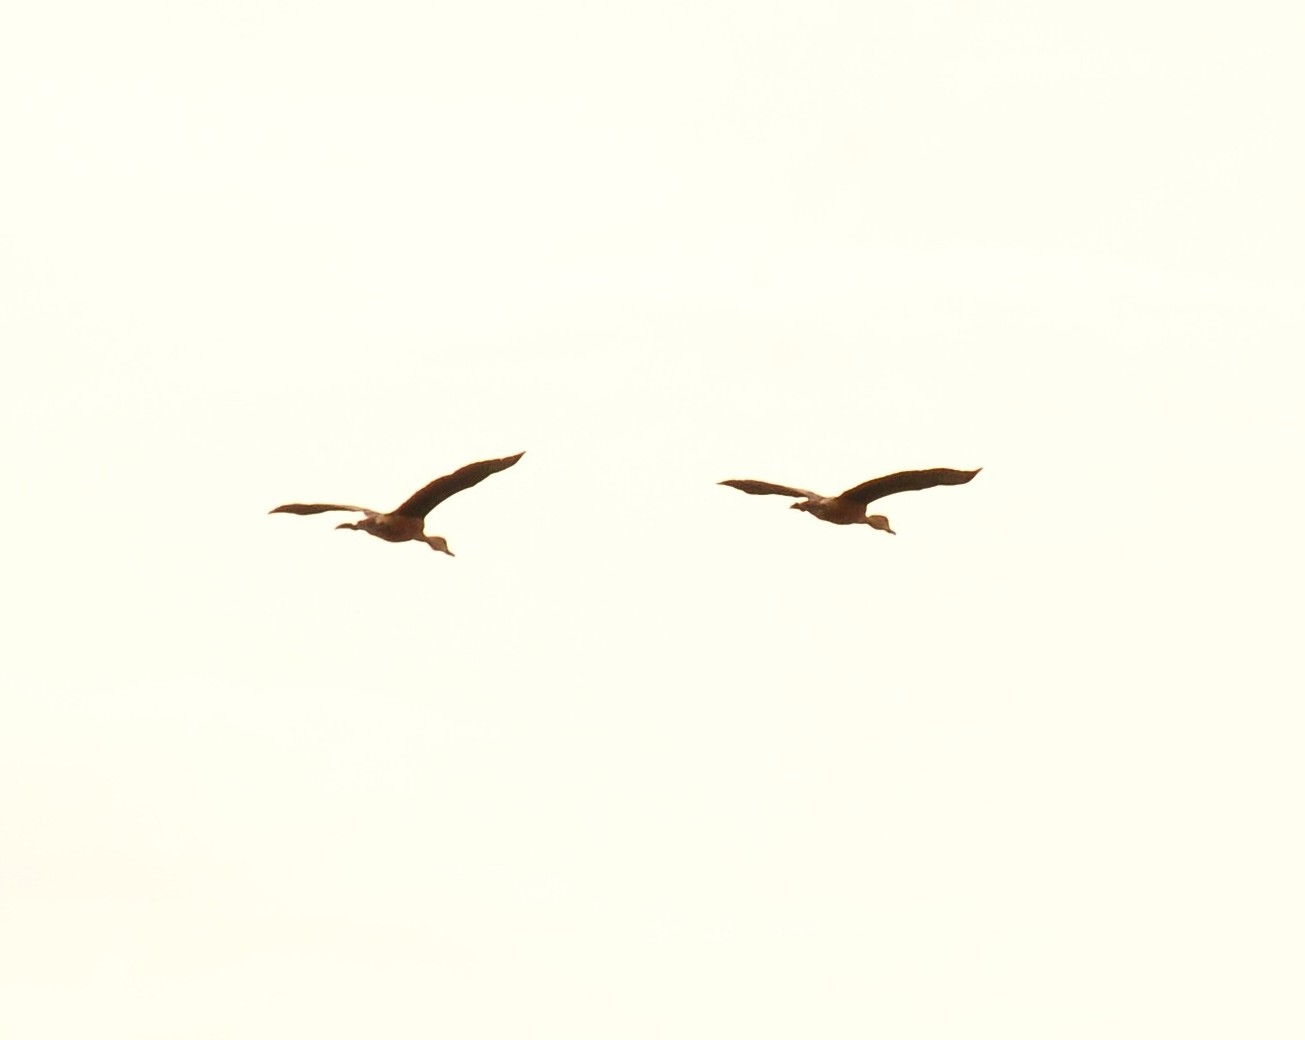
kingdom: Animalia
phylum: Chordata
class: Aves
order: Anseriformes
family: Anatidae
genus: Dendrocygna
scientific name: Dendrocygna javanica
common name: Lesser whistling-duck
